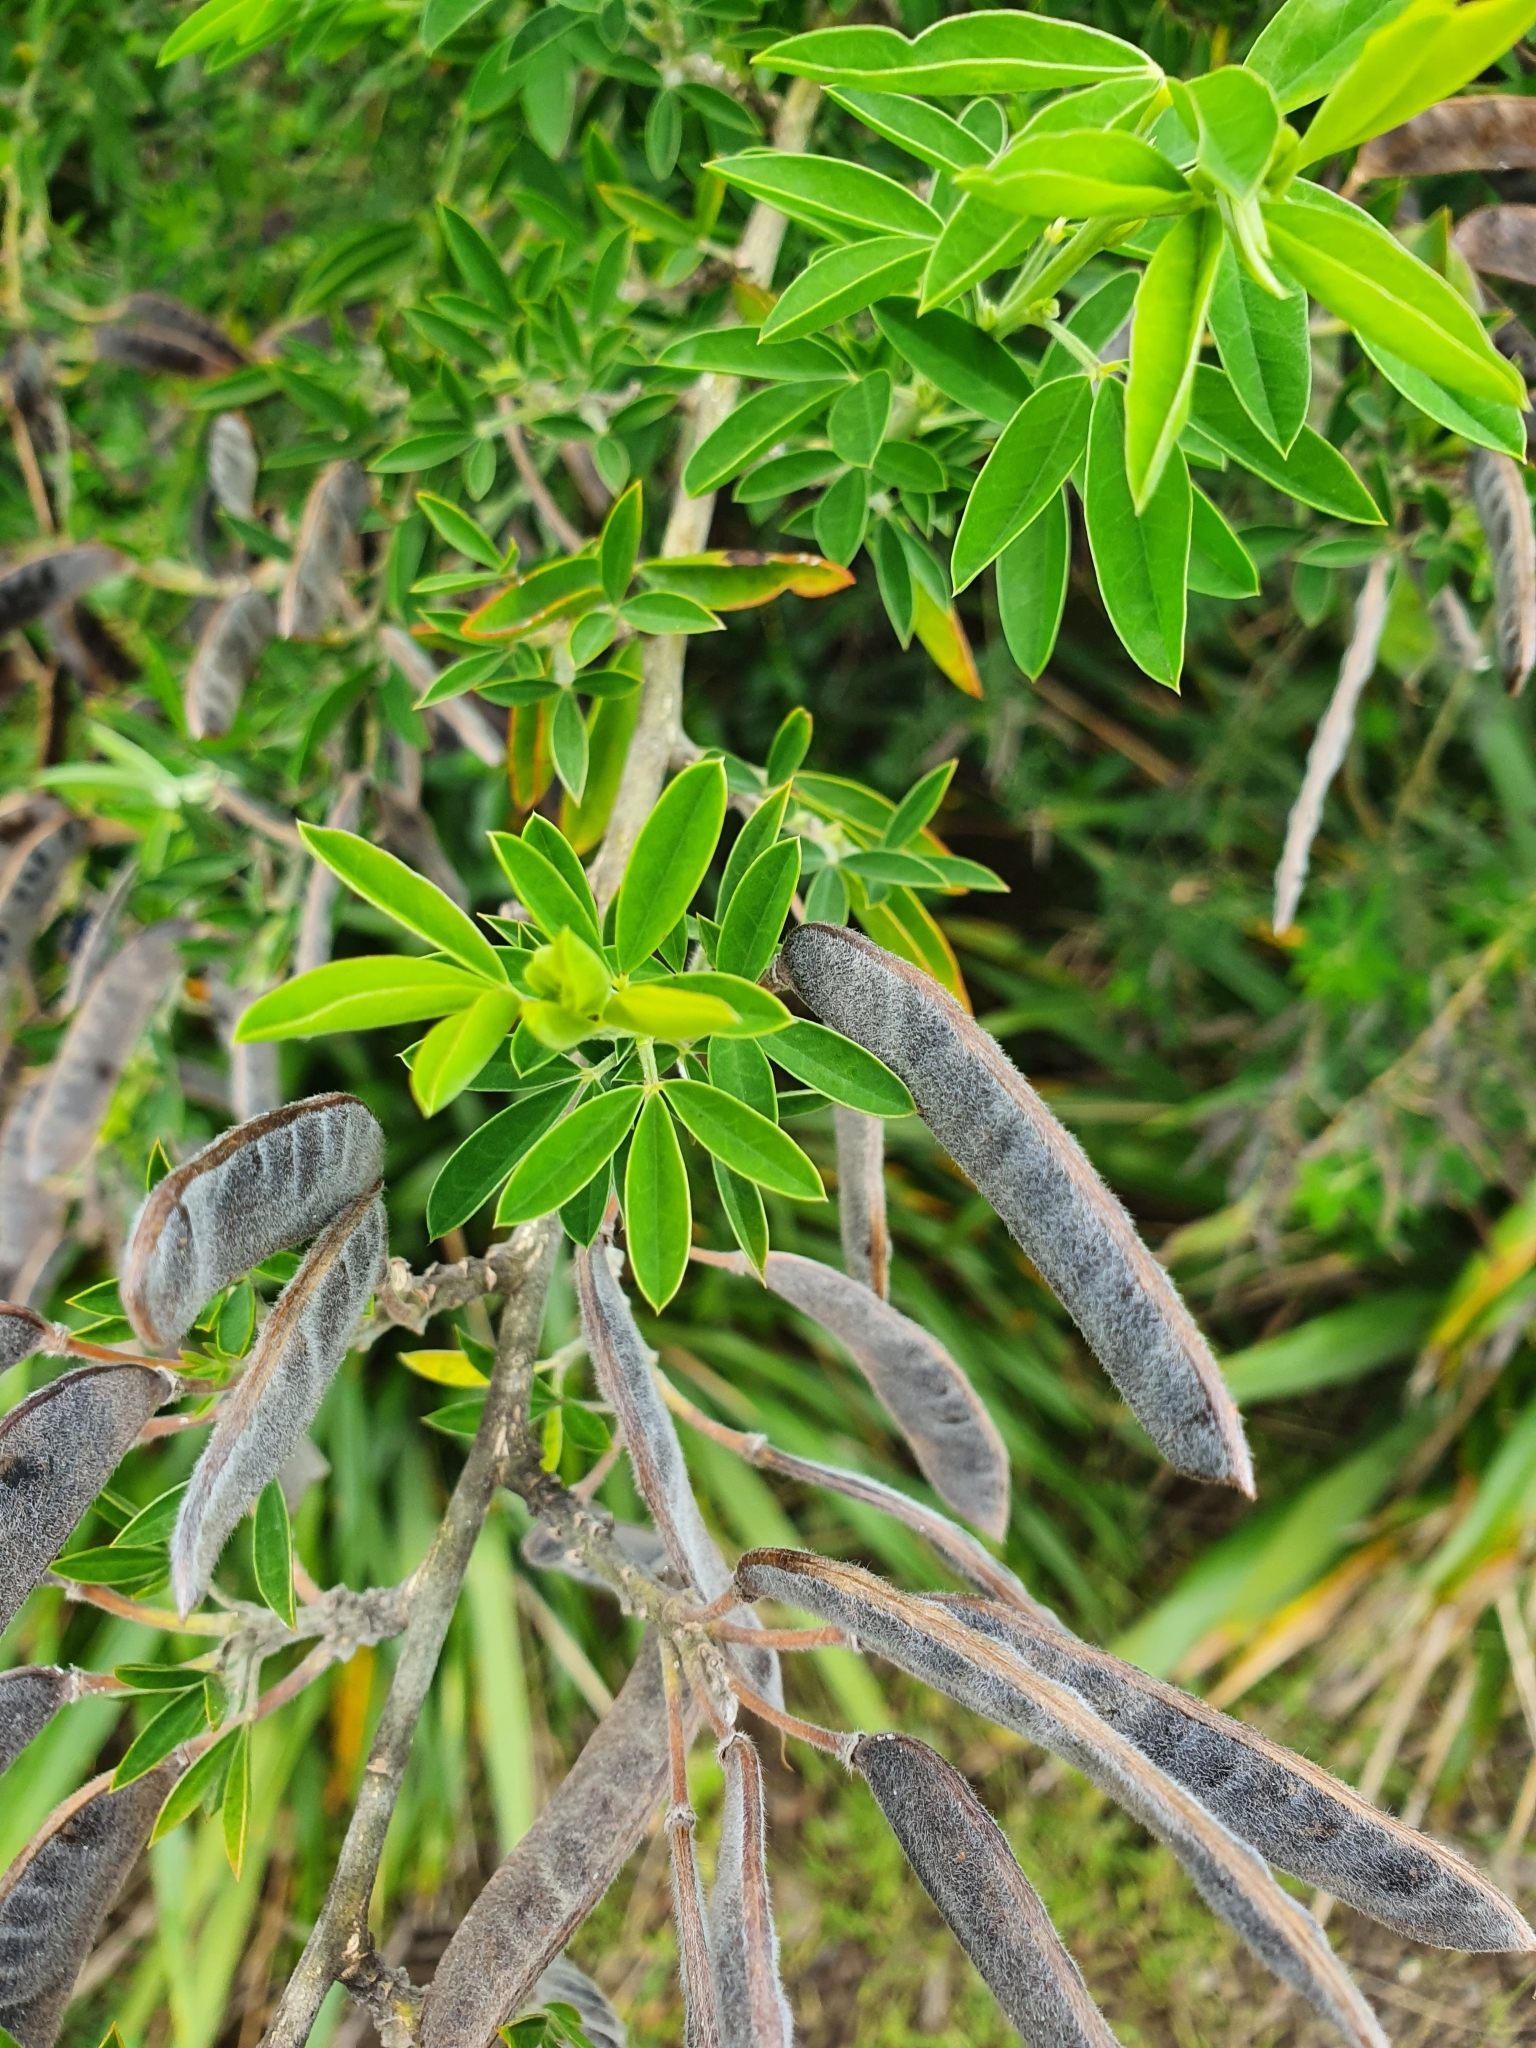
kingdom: Plantae
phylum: Tracheophyta
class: Magnoliopsida
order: Fabales
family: Fabaceae
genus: Chamaecytisus
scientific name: Chamaecytisus prolifer
